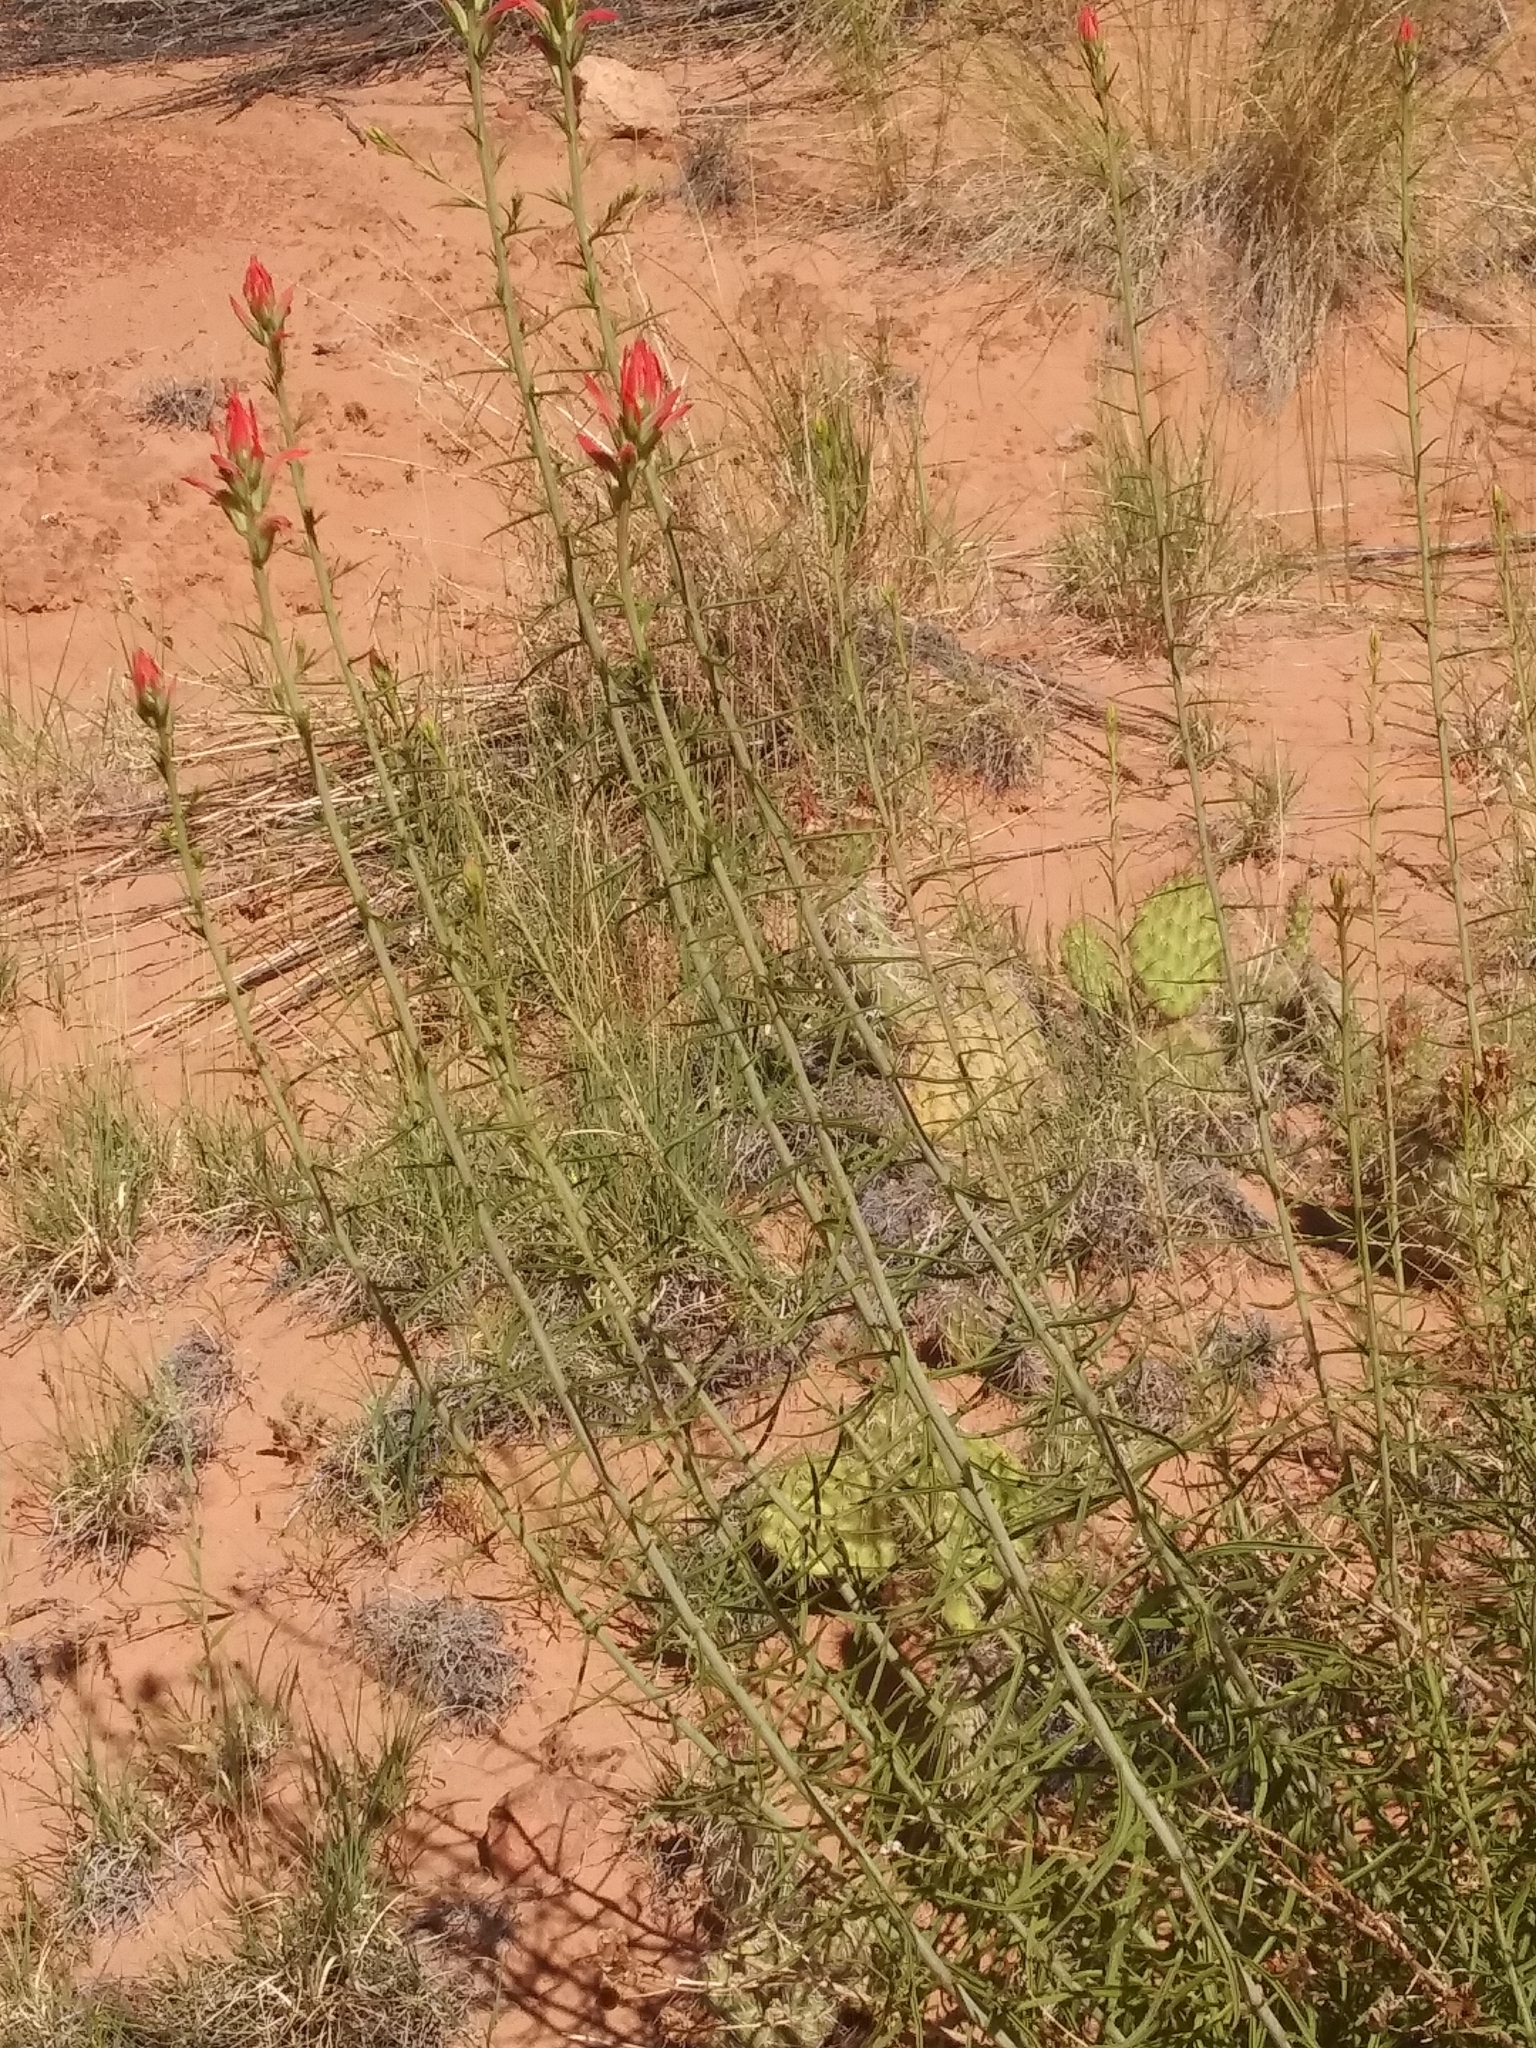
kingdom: Plantae
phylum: Tracheophyta
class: Magnoliopsida
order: Lamiales
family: Orobanchaceae
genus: Castilleja
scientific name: Castilleja linariifolia
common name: Wyoming paintbrush
